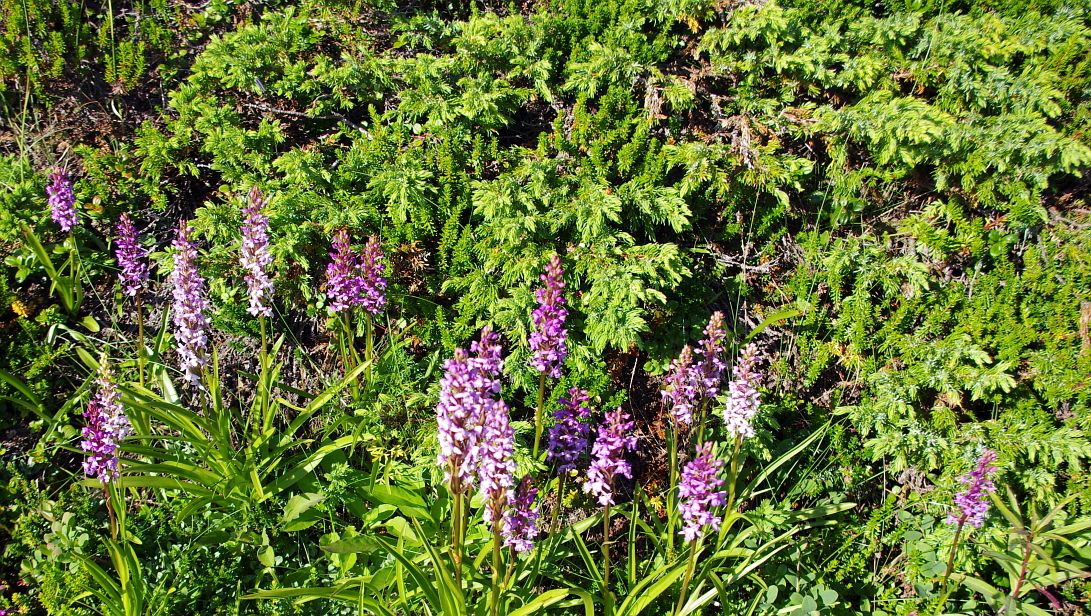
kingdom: Plantae
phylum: Tracheophyta
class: Liliopsida
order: Asparagales
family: Orchidaceae
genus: Gymnadenia
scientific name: Gymnadenia conopsea
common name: Fragrant orchid
